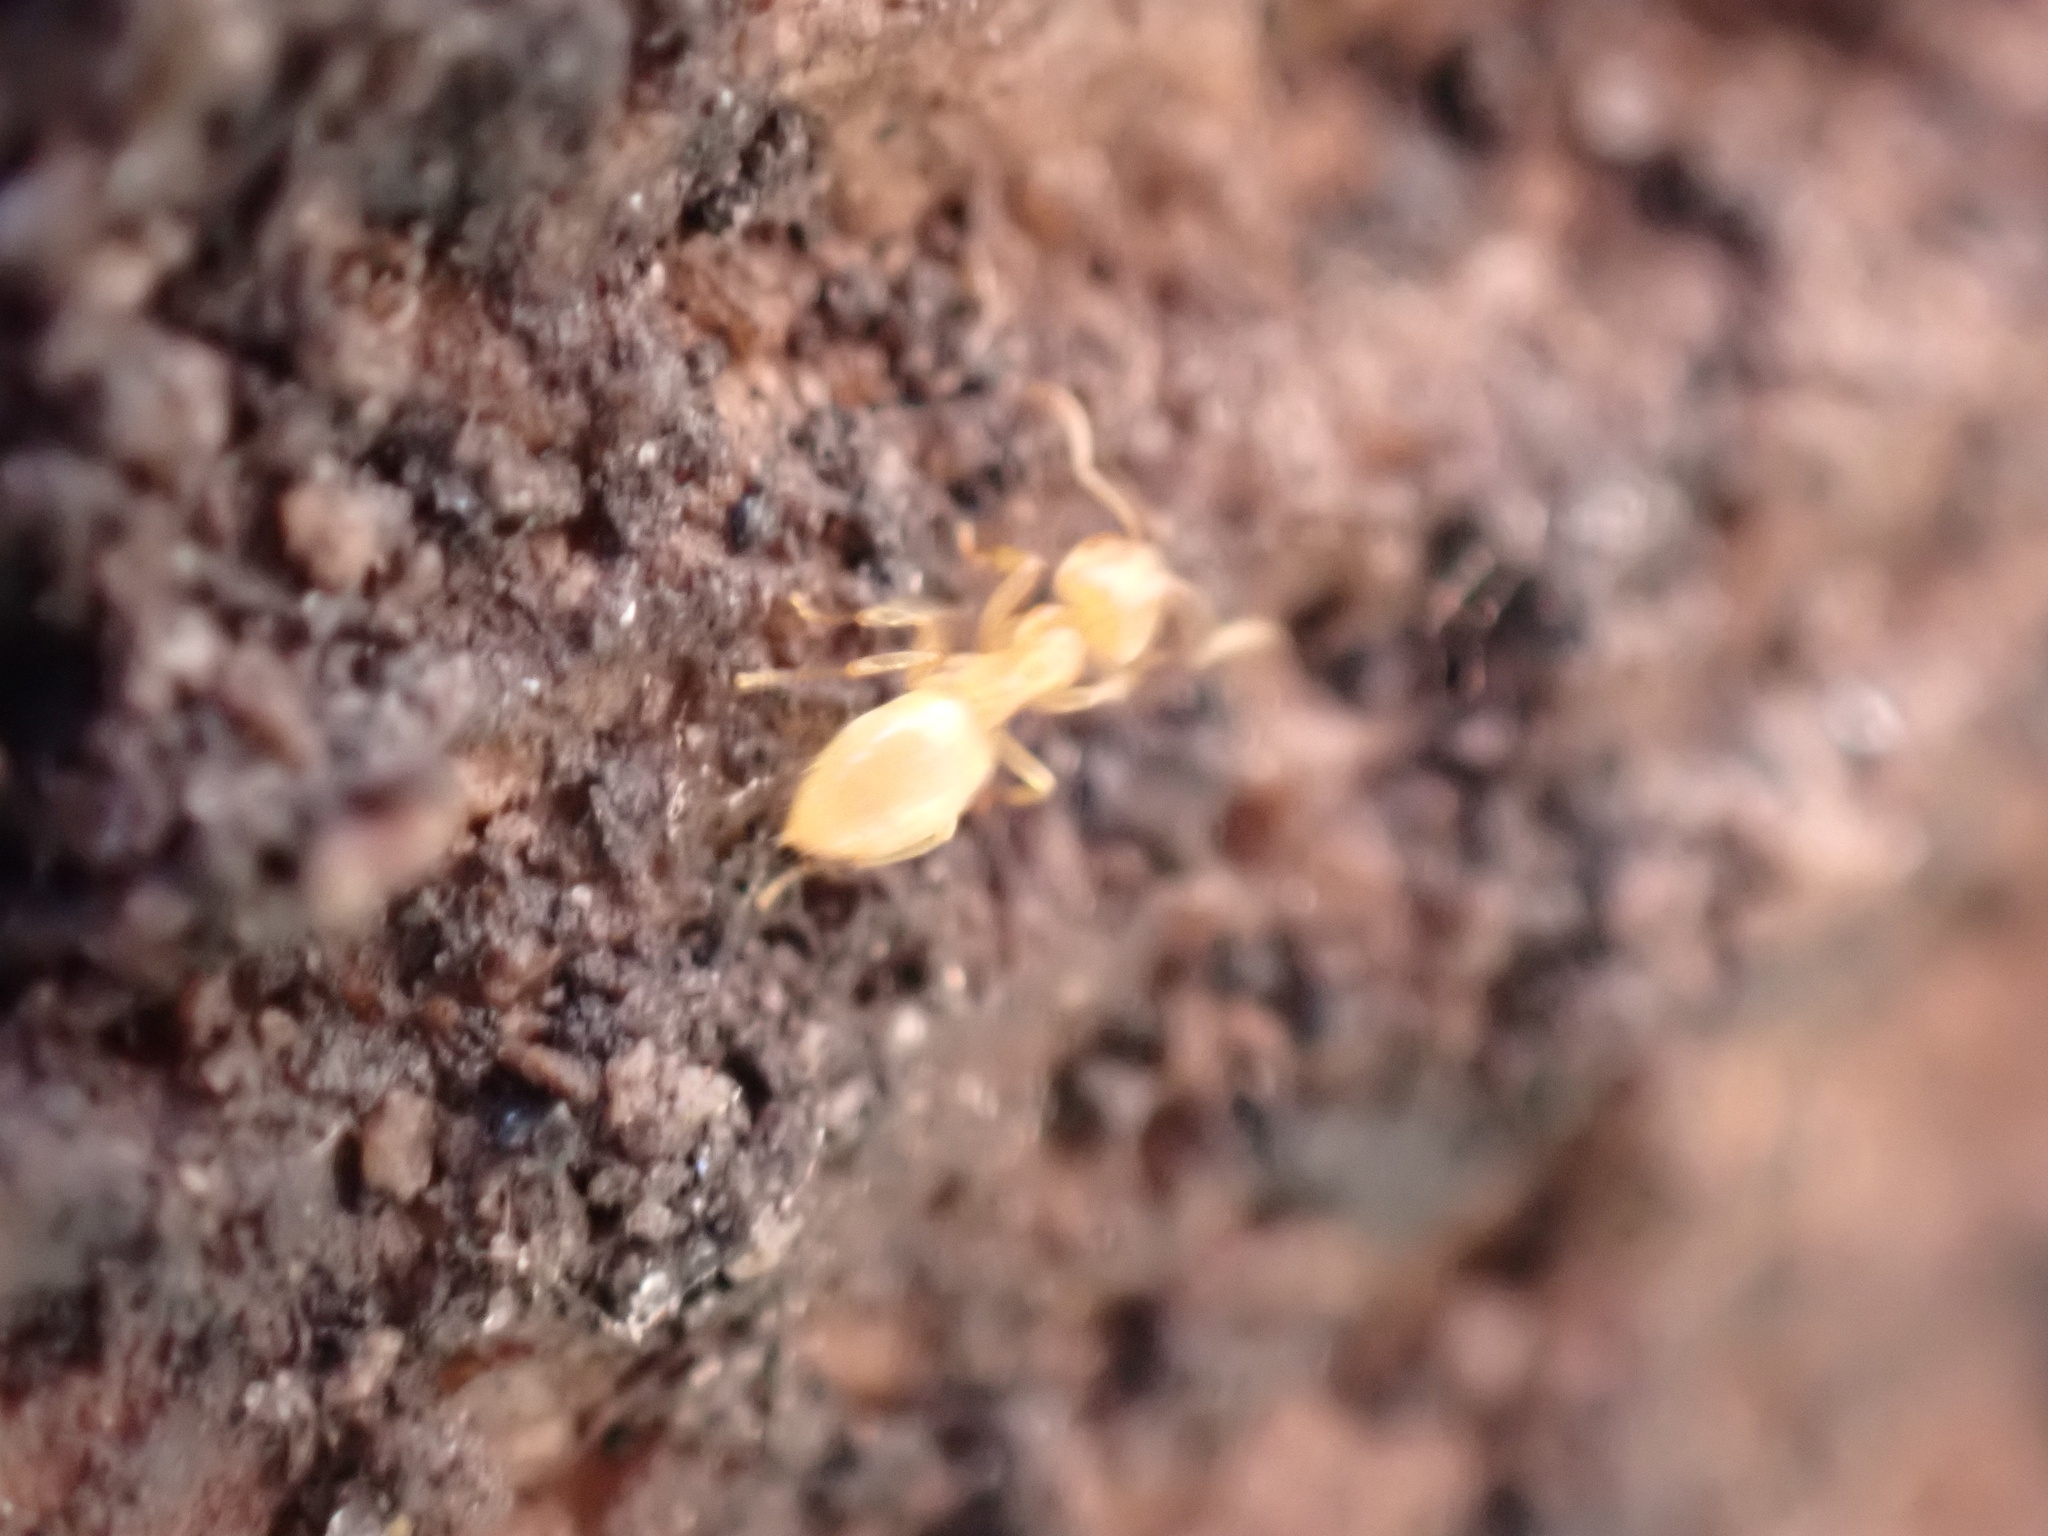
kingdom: Animalia
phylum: Arthropoda
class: Insecta
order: Hymenoptera
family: Formicidae
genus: Cautolasius
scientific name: Cautolasius
